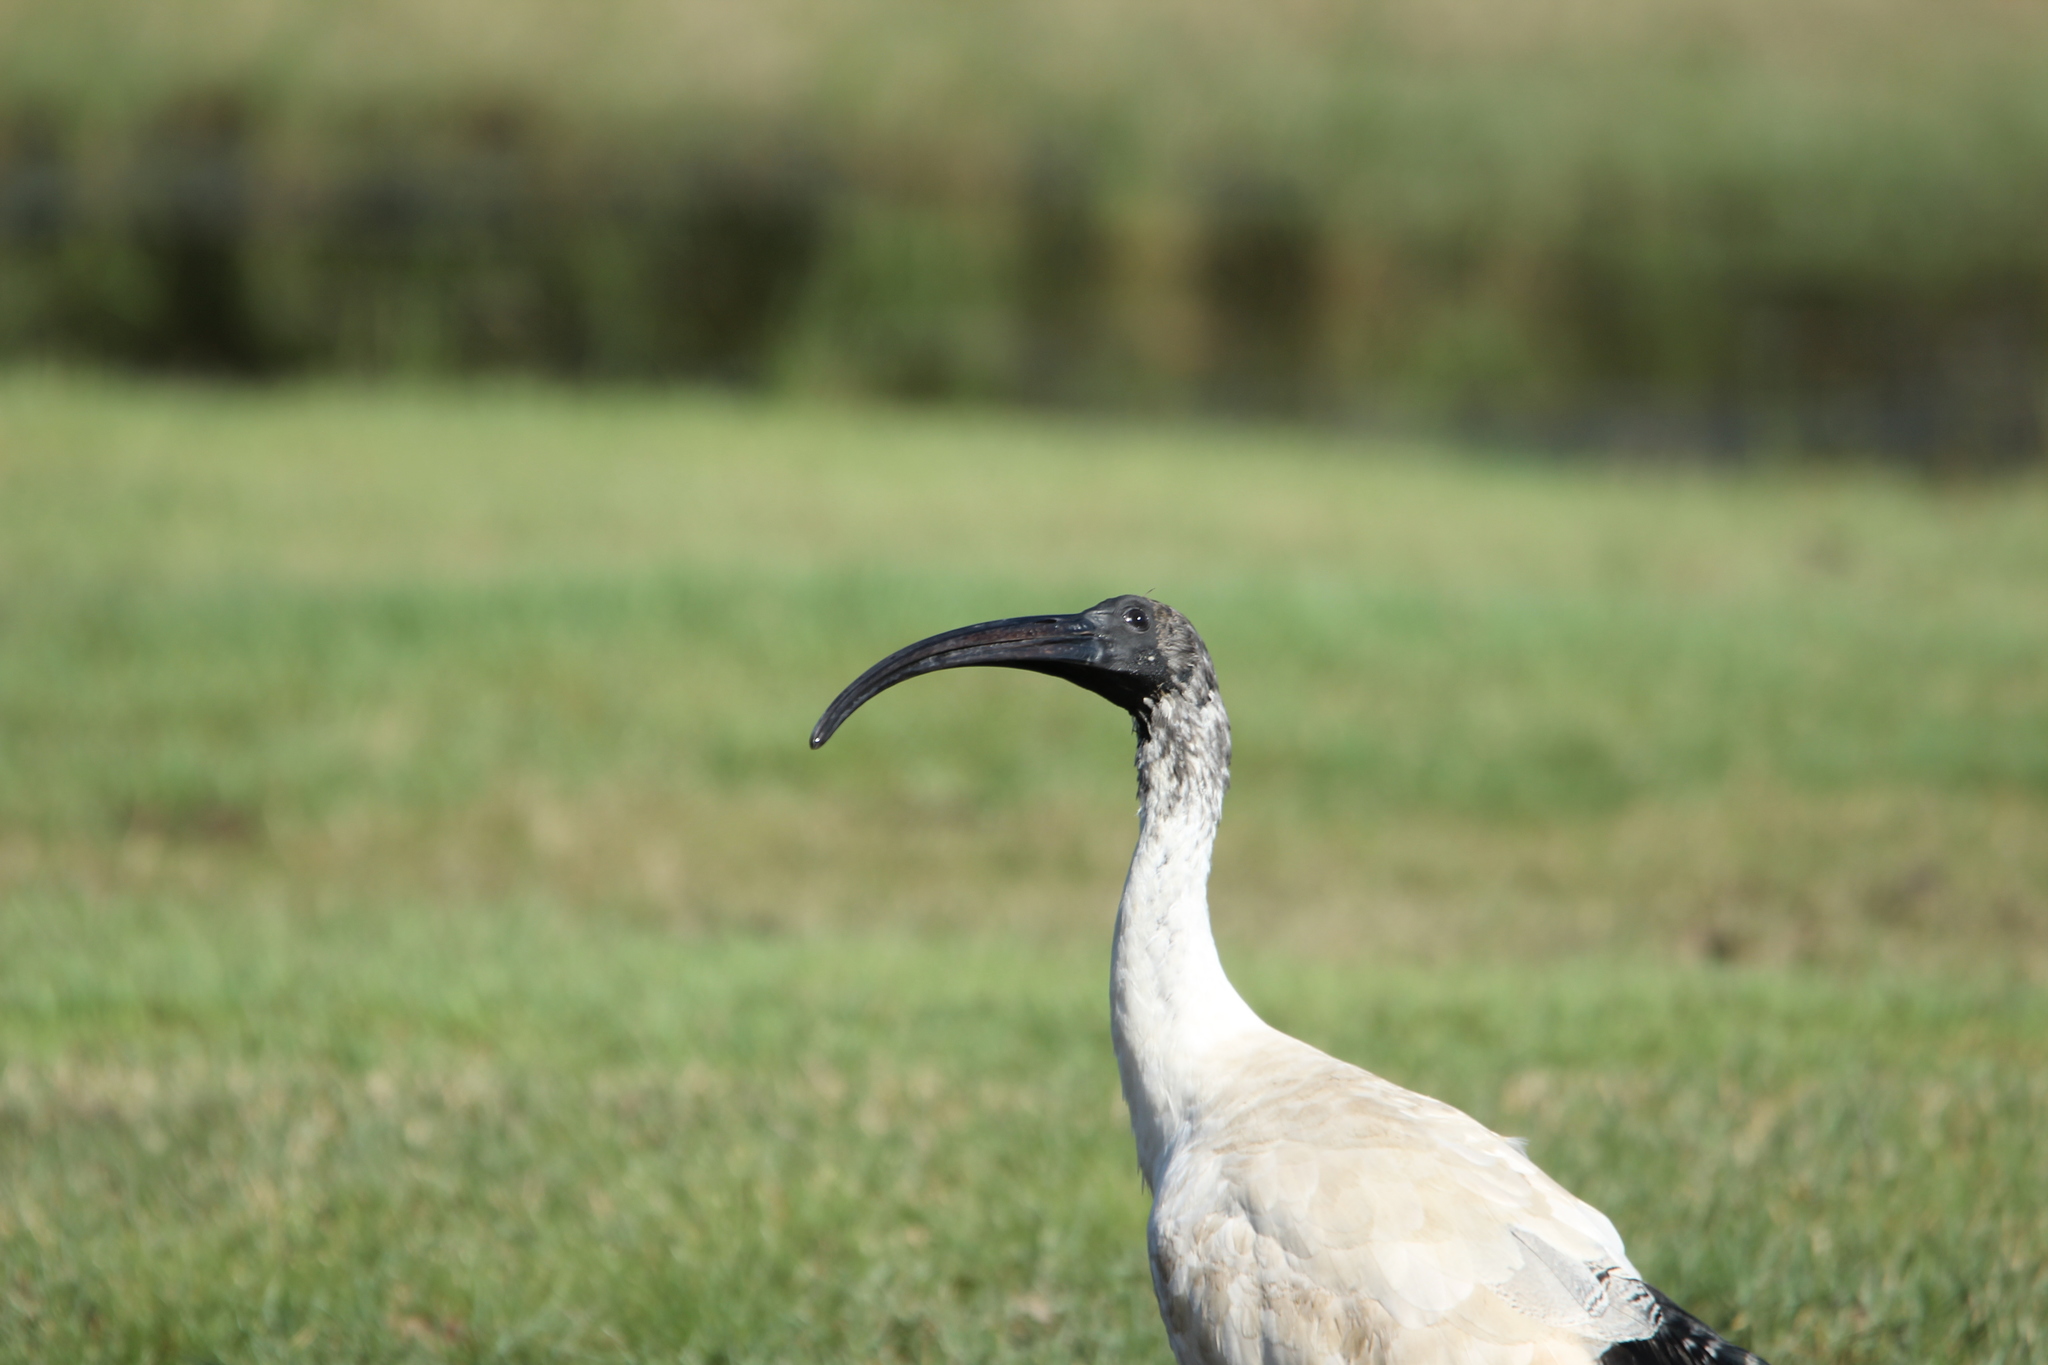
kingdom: Animalia
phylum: Chordata
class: Aves
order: Pelecaniformes
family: Threskiornithidae
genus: Threskiornis
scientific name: Threskiornis molucca
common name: Australian white ibis
